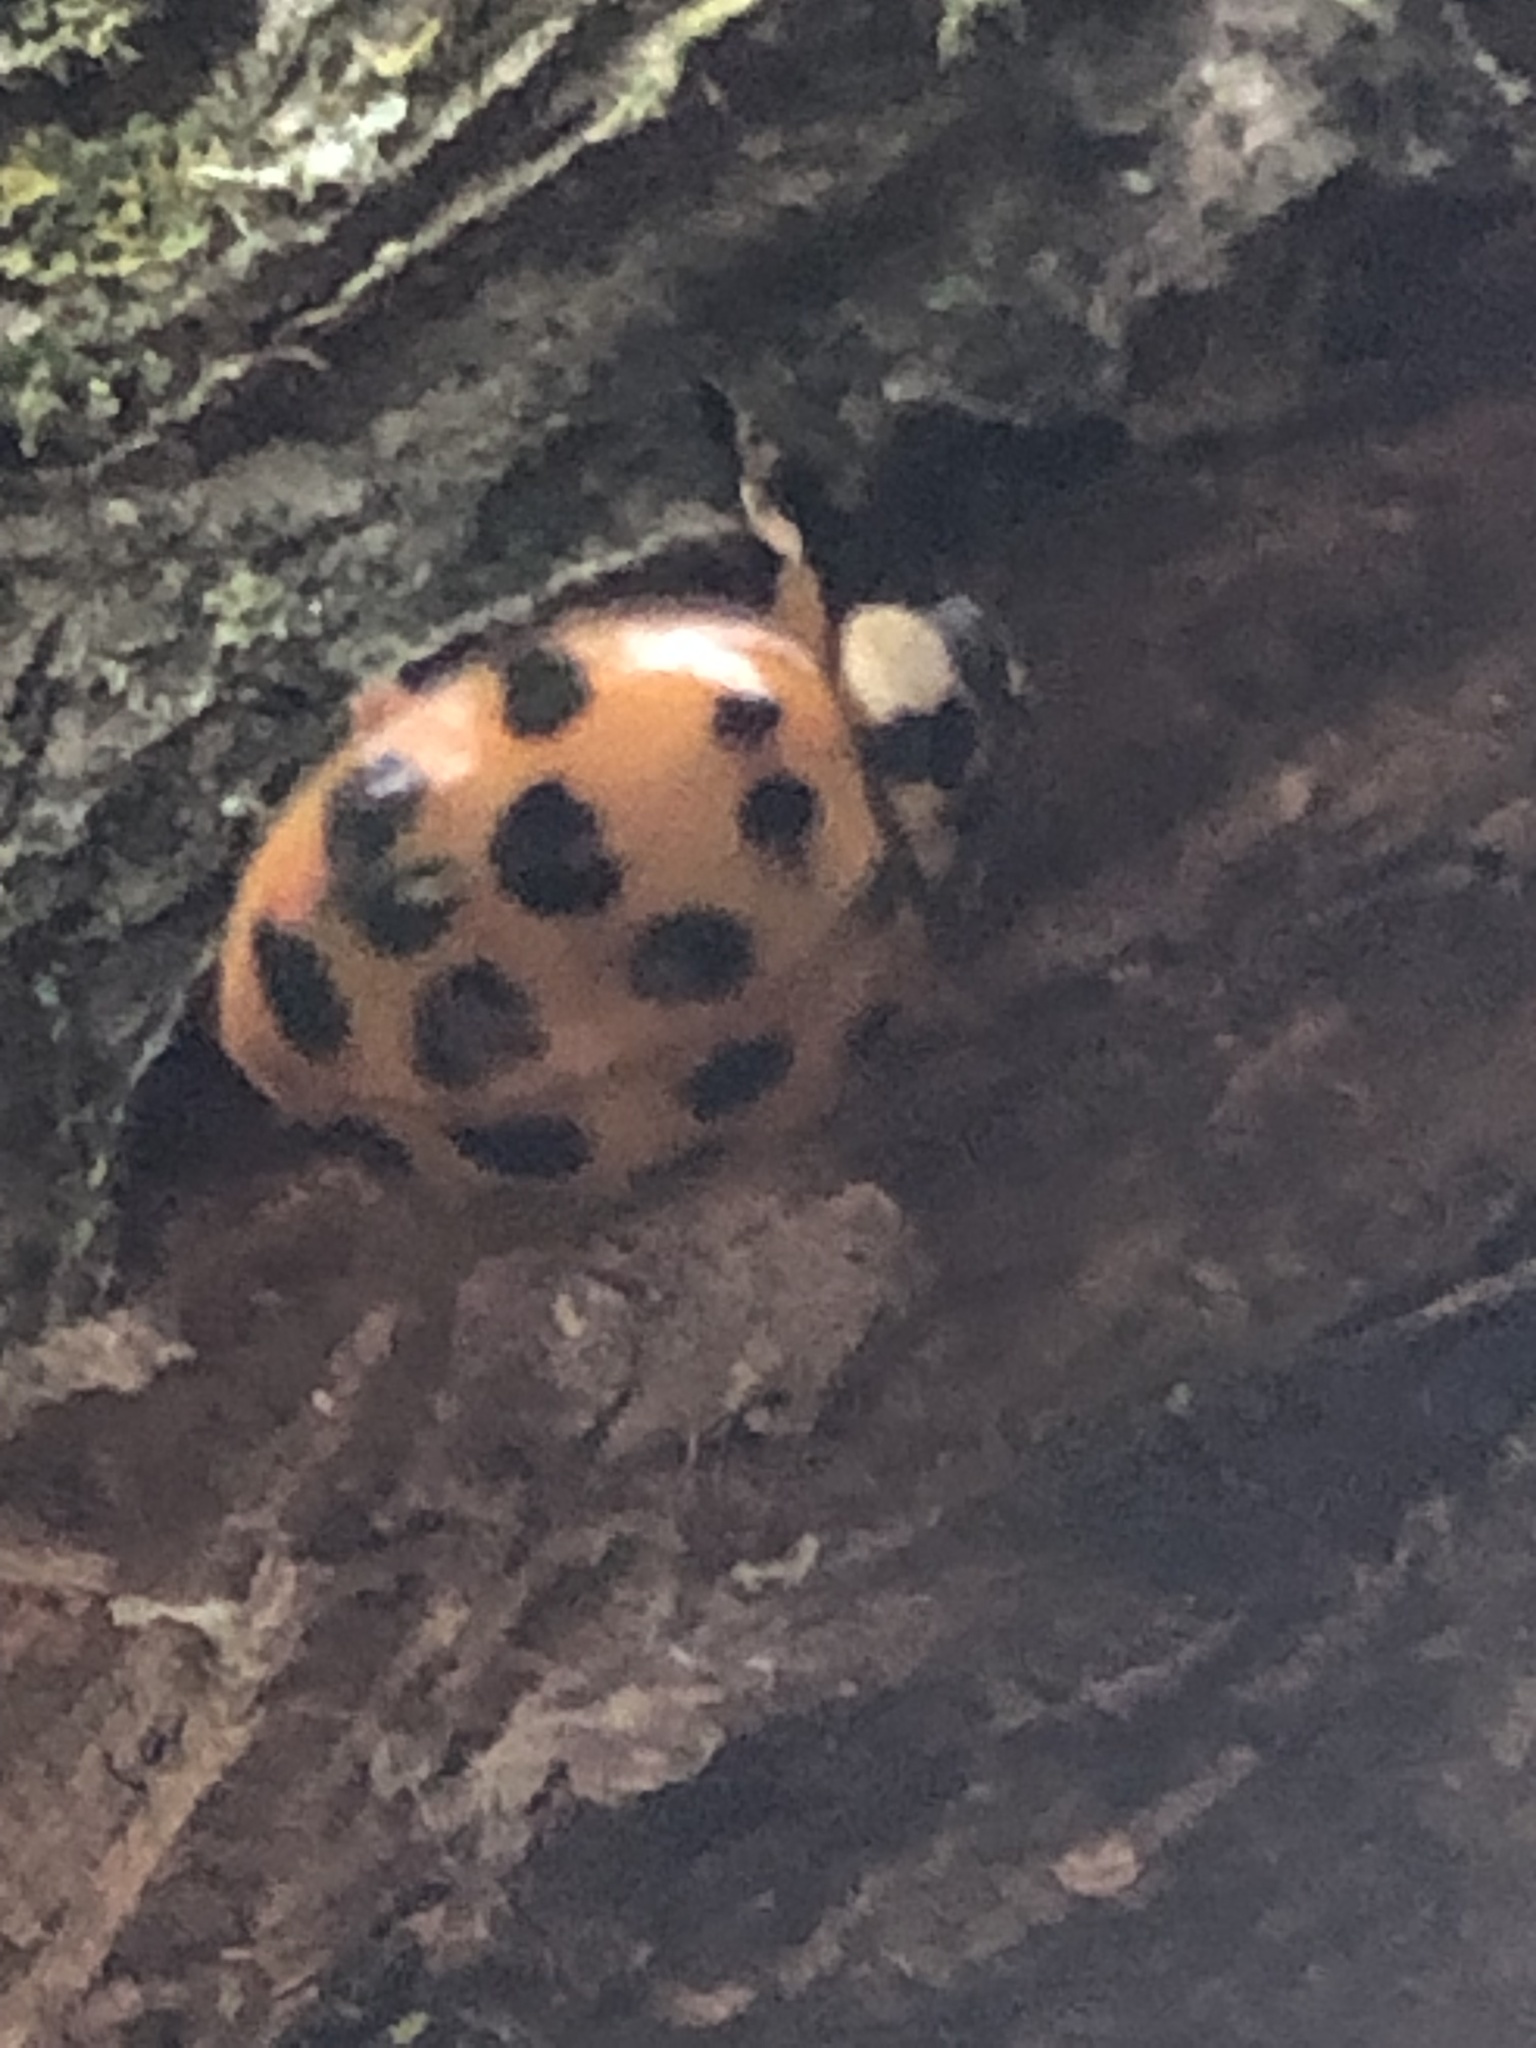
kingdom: Animalia
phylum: Arthropoda
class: Insecta
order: Coleoptera
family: Coccinellidae
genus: Harmonia
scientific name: Harmonia axyridis
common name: Harlequin ladybird
